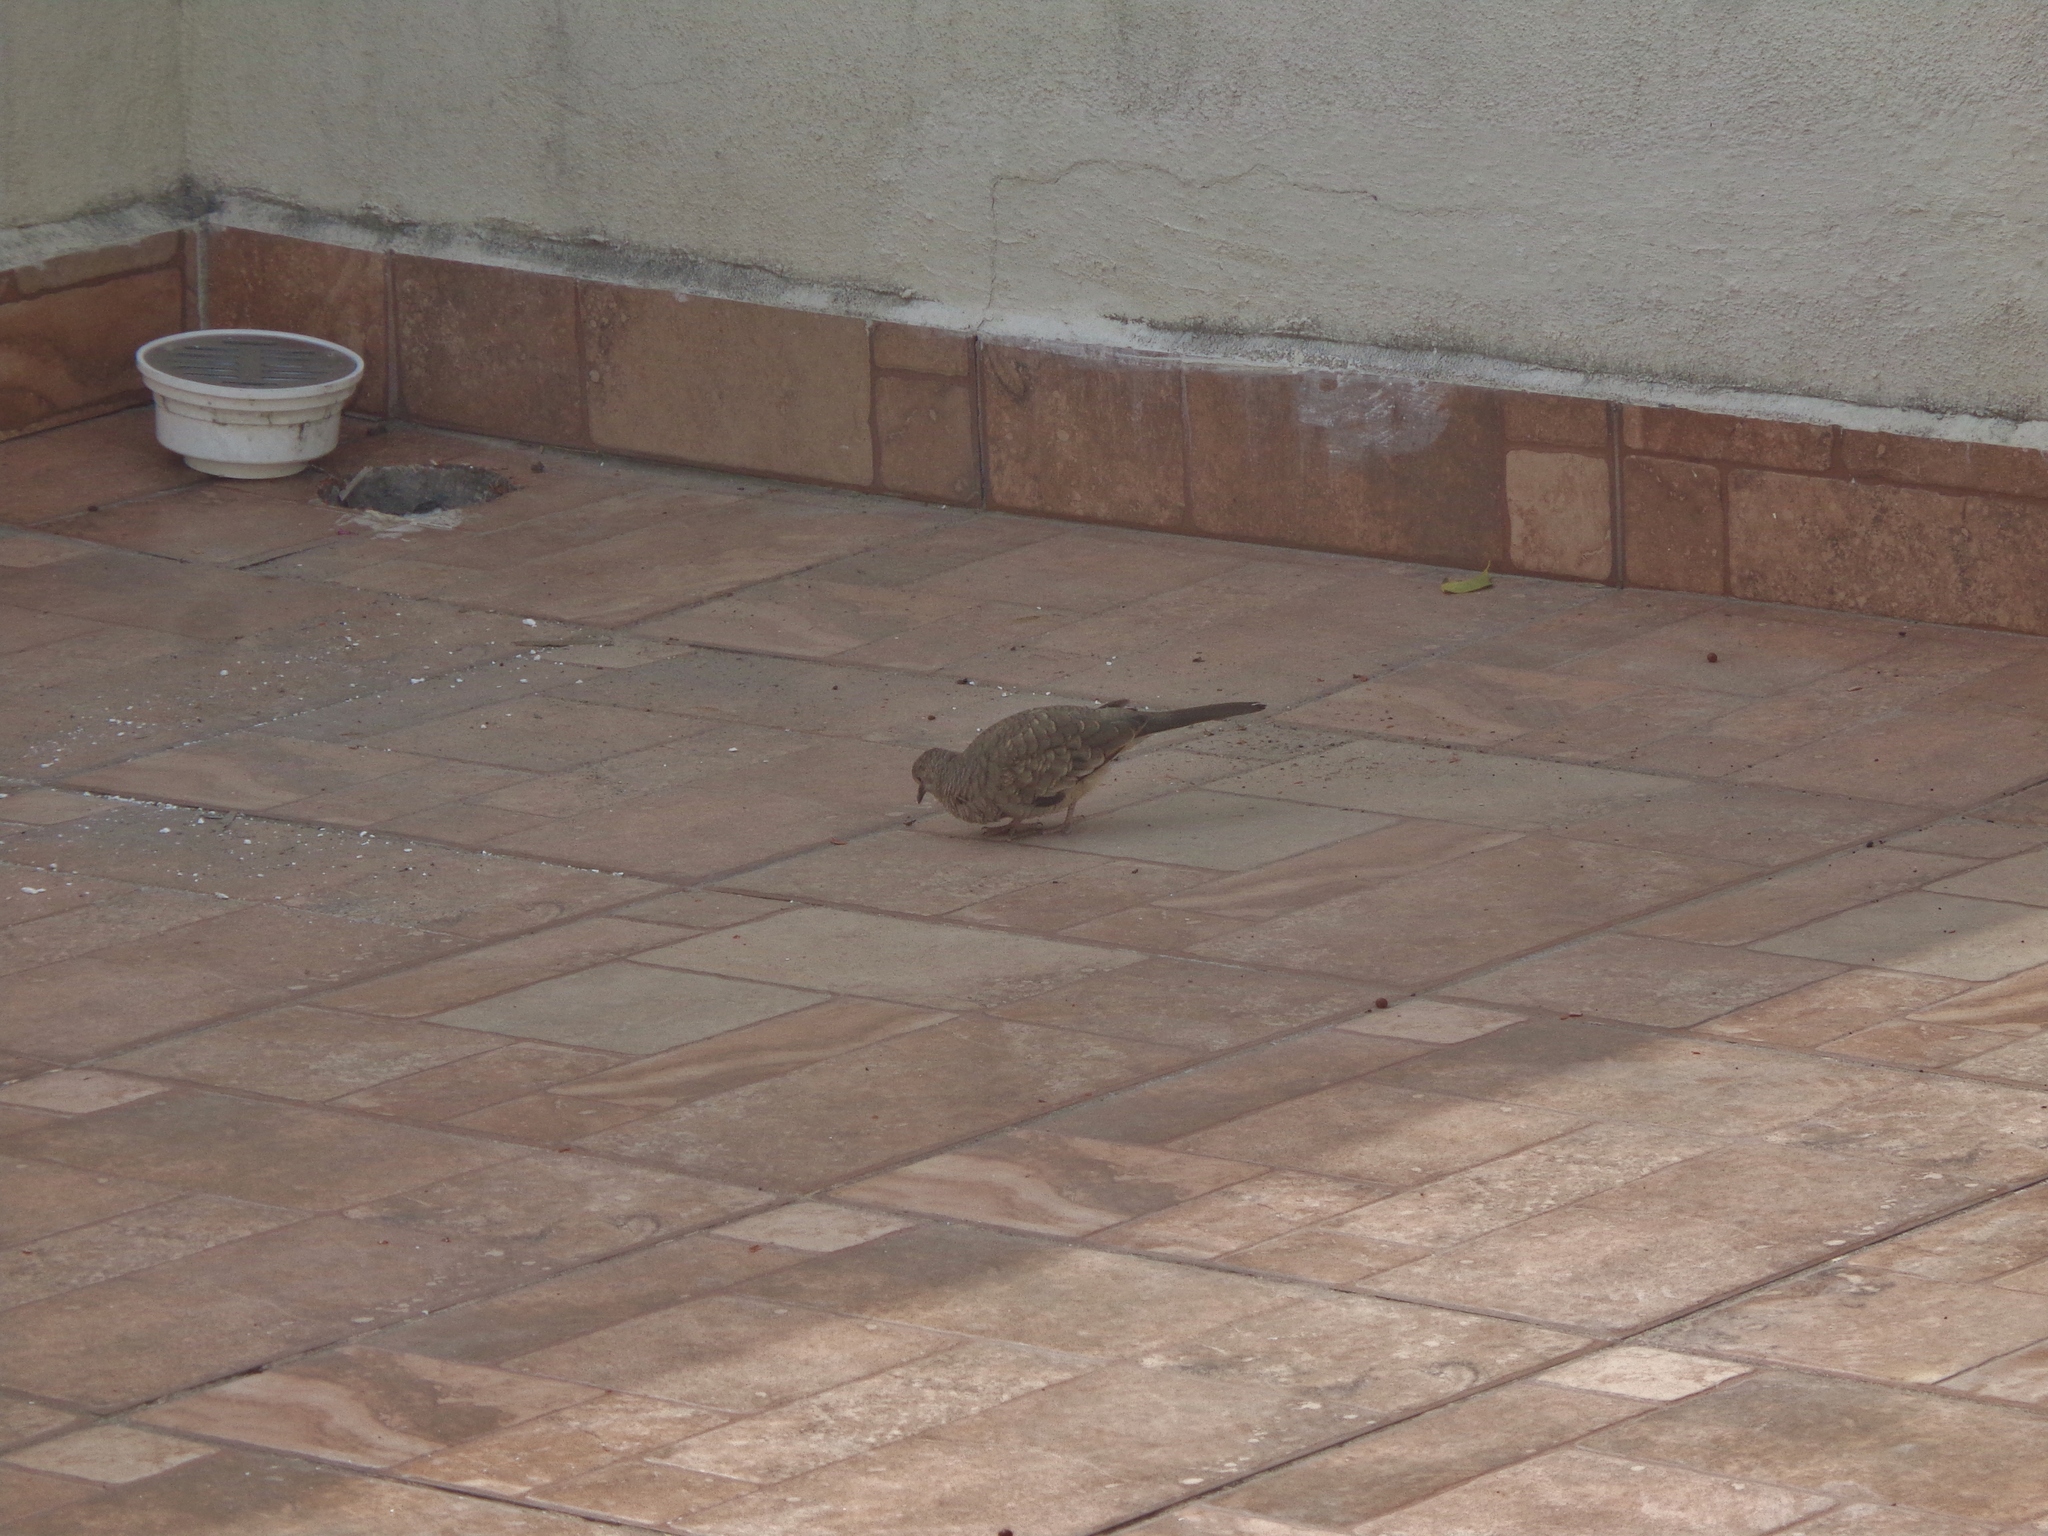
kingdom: Animalia
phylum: Chordata
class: Aves
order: Columbiformes
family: Columbidae
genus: Columbina
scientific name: Columbina inca
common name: Inca dove
